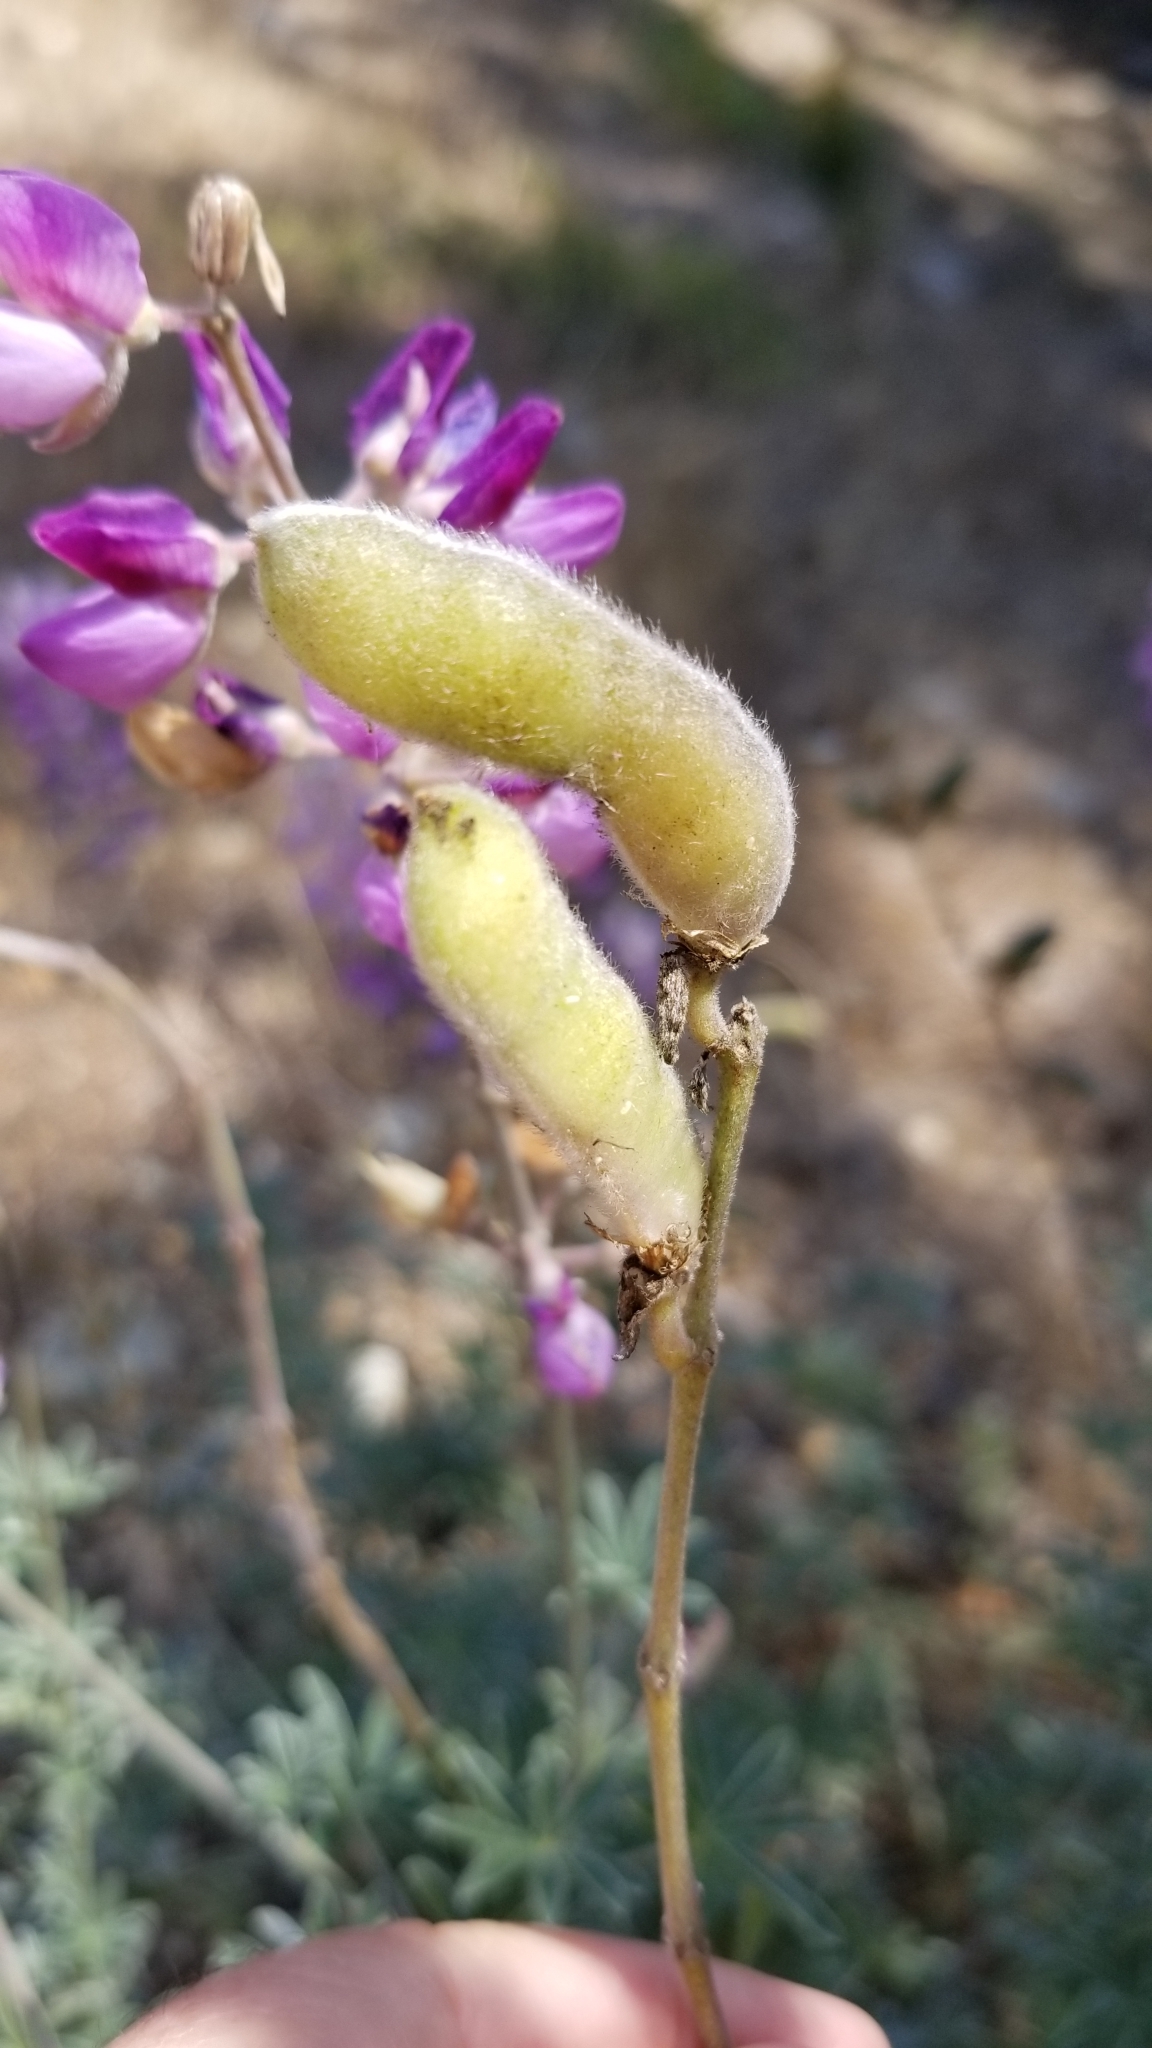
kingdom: Plantae
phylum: Tracheophyta
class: Magnoliopsida
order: Fabales
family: Fabaceae
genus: Lupinus
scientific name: Lupinus albifrons
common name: Foothill lupine
